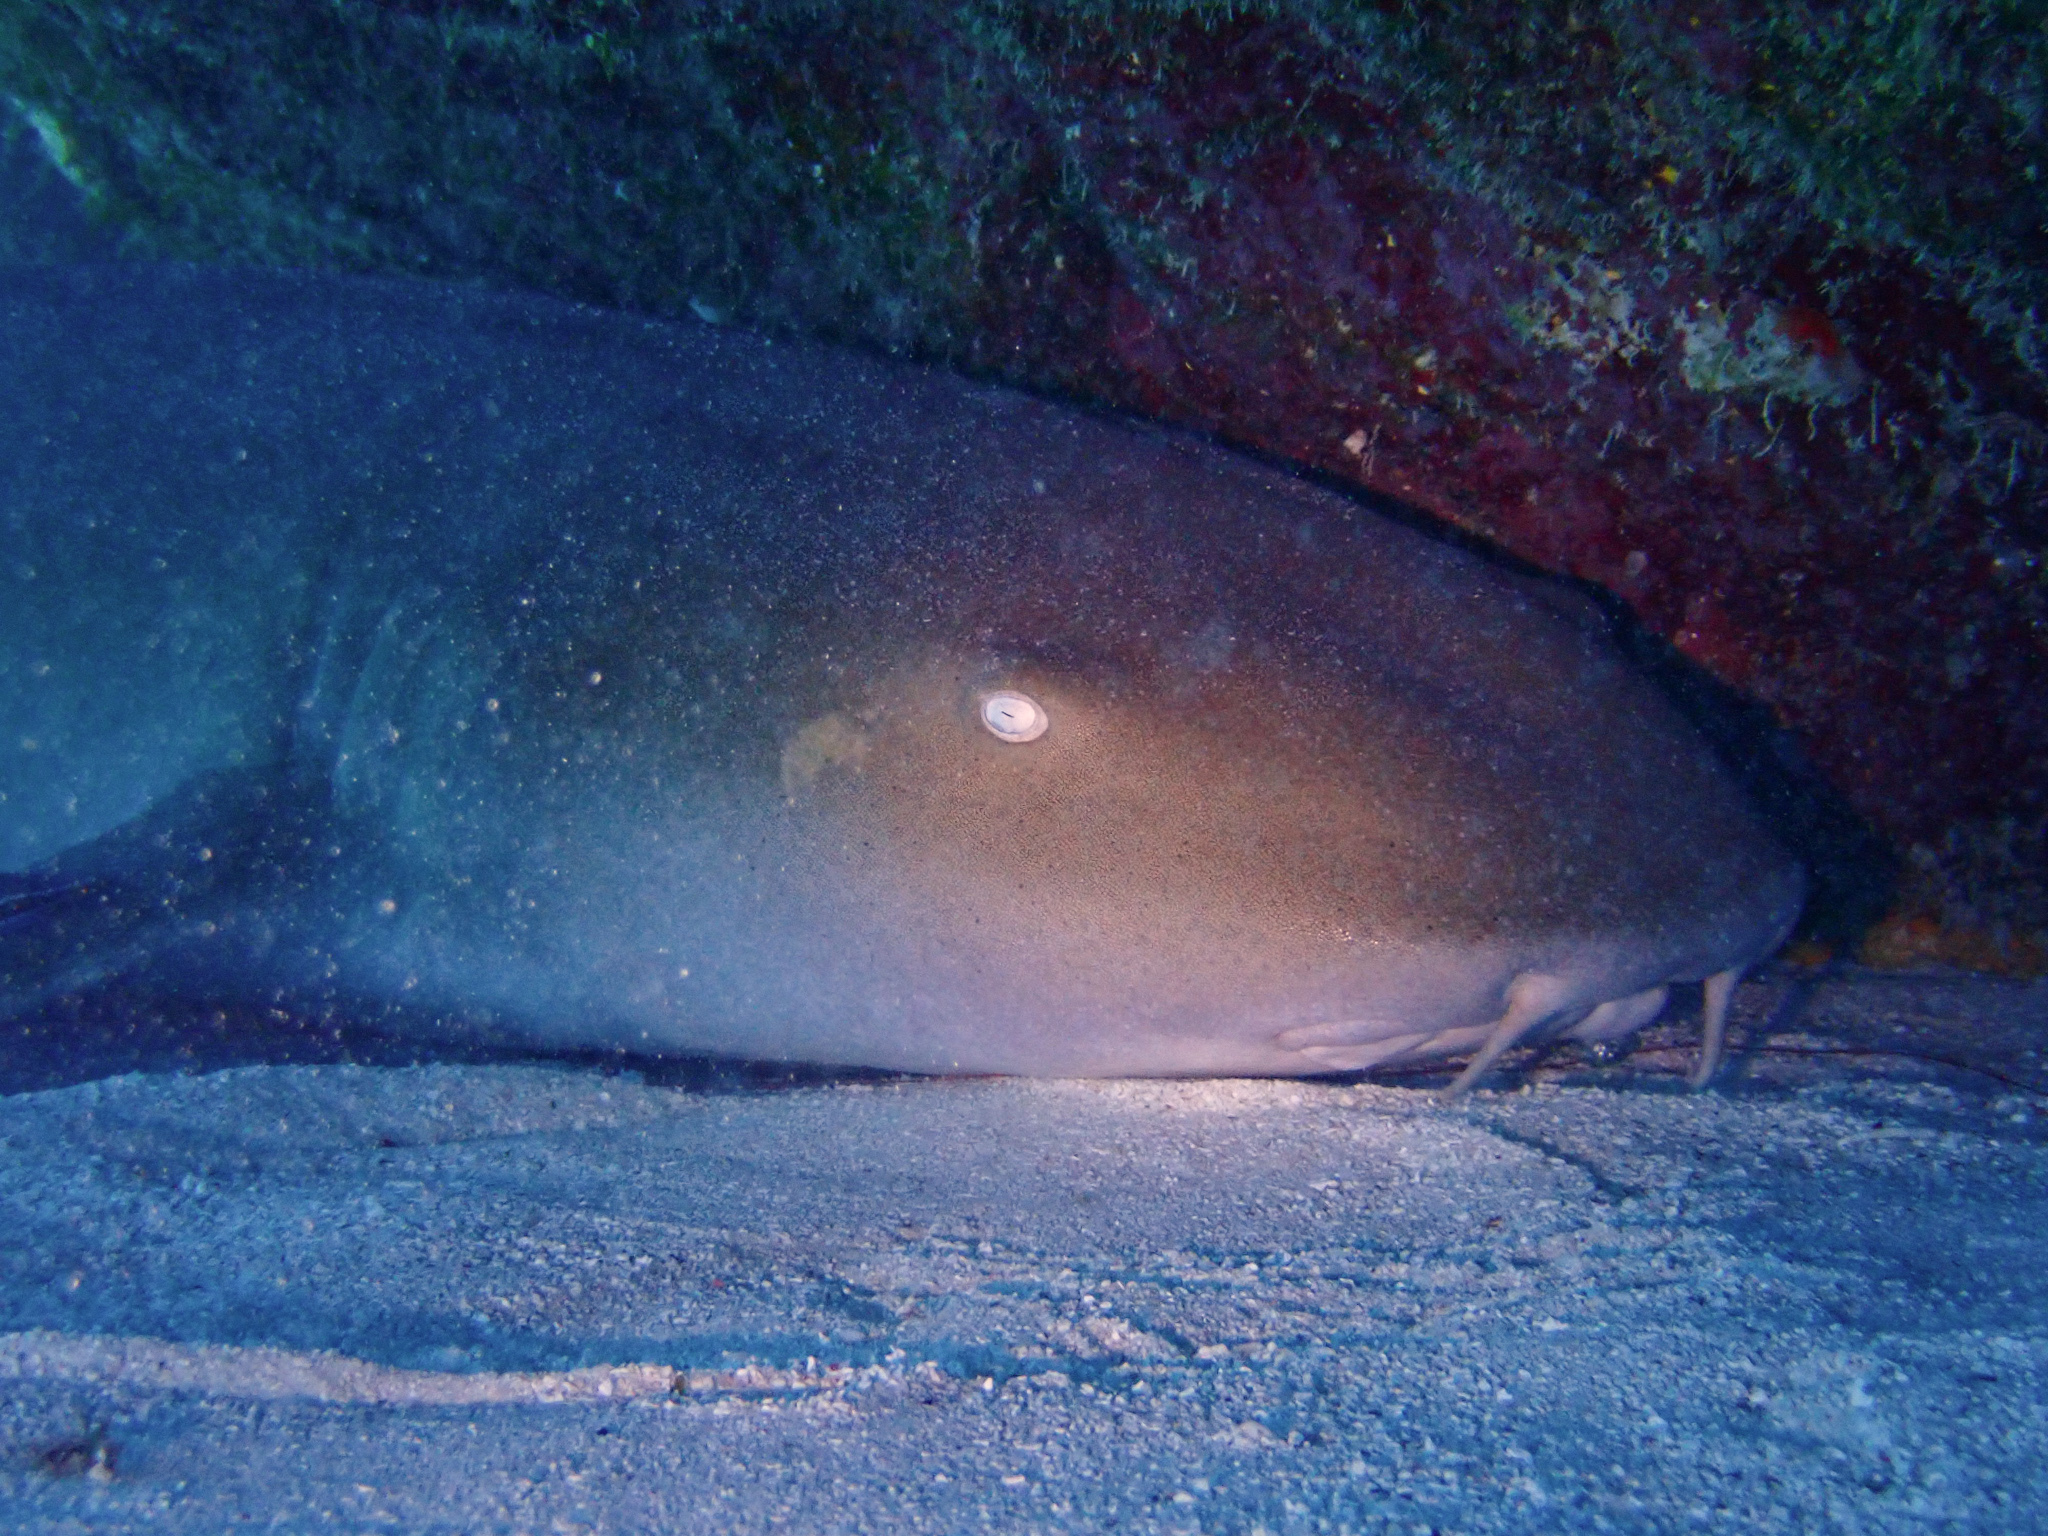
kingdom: Animalia
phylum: Chordata
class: Elasmobranchii
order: Orectolobiformes
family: Ginglymostomatidae
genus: Ginglymostoma
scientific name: Ginglymostoma cirratum
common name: Nurse shark
